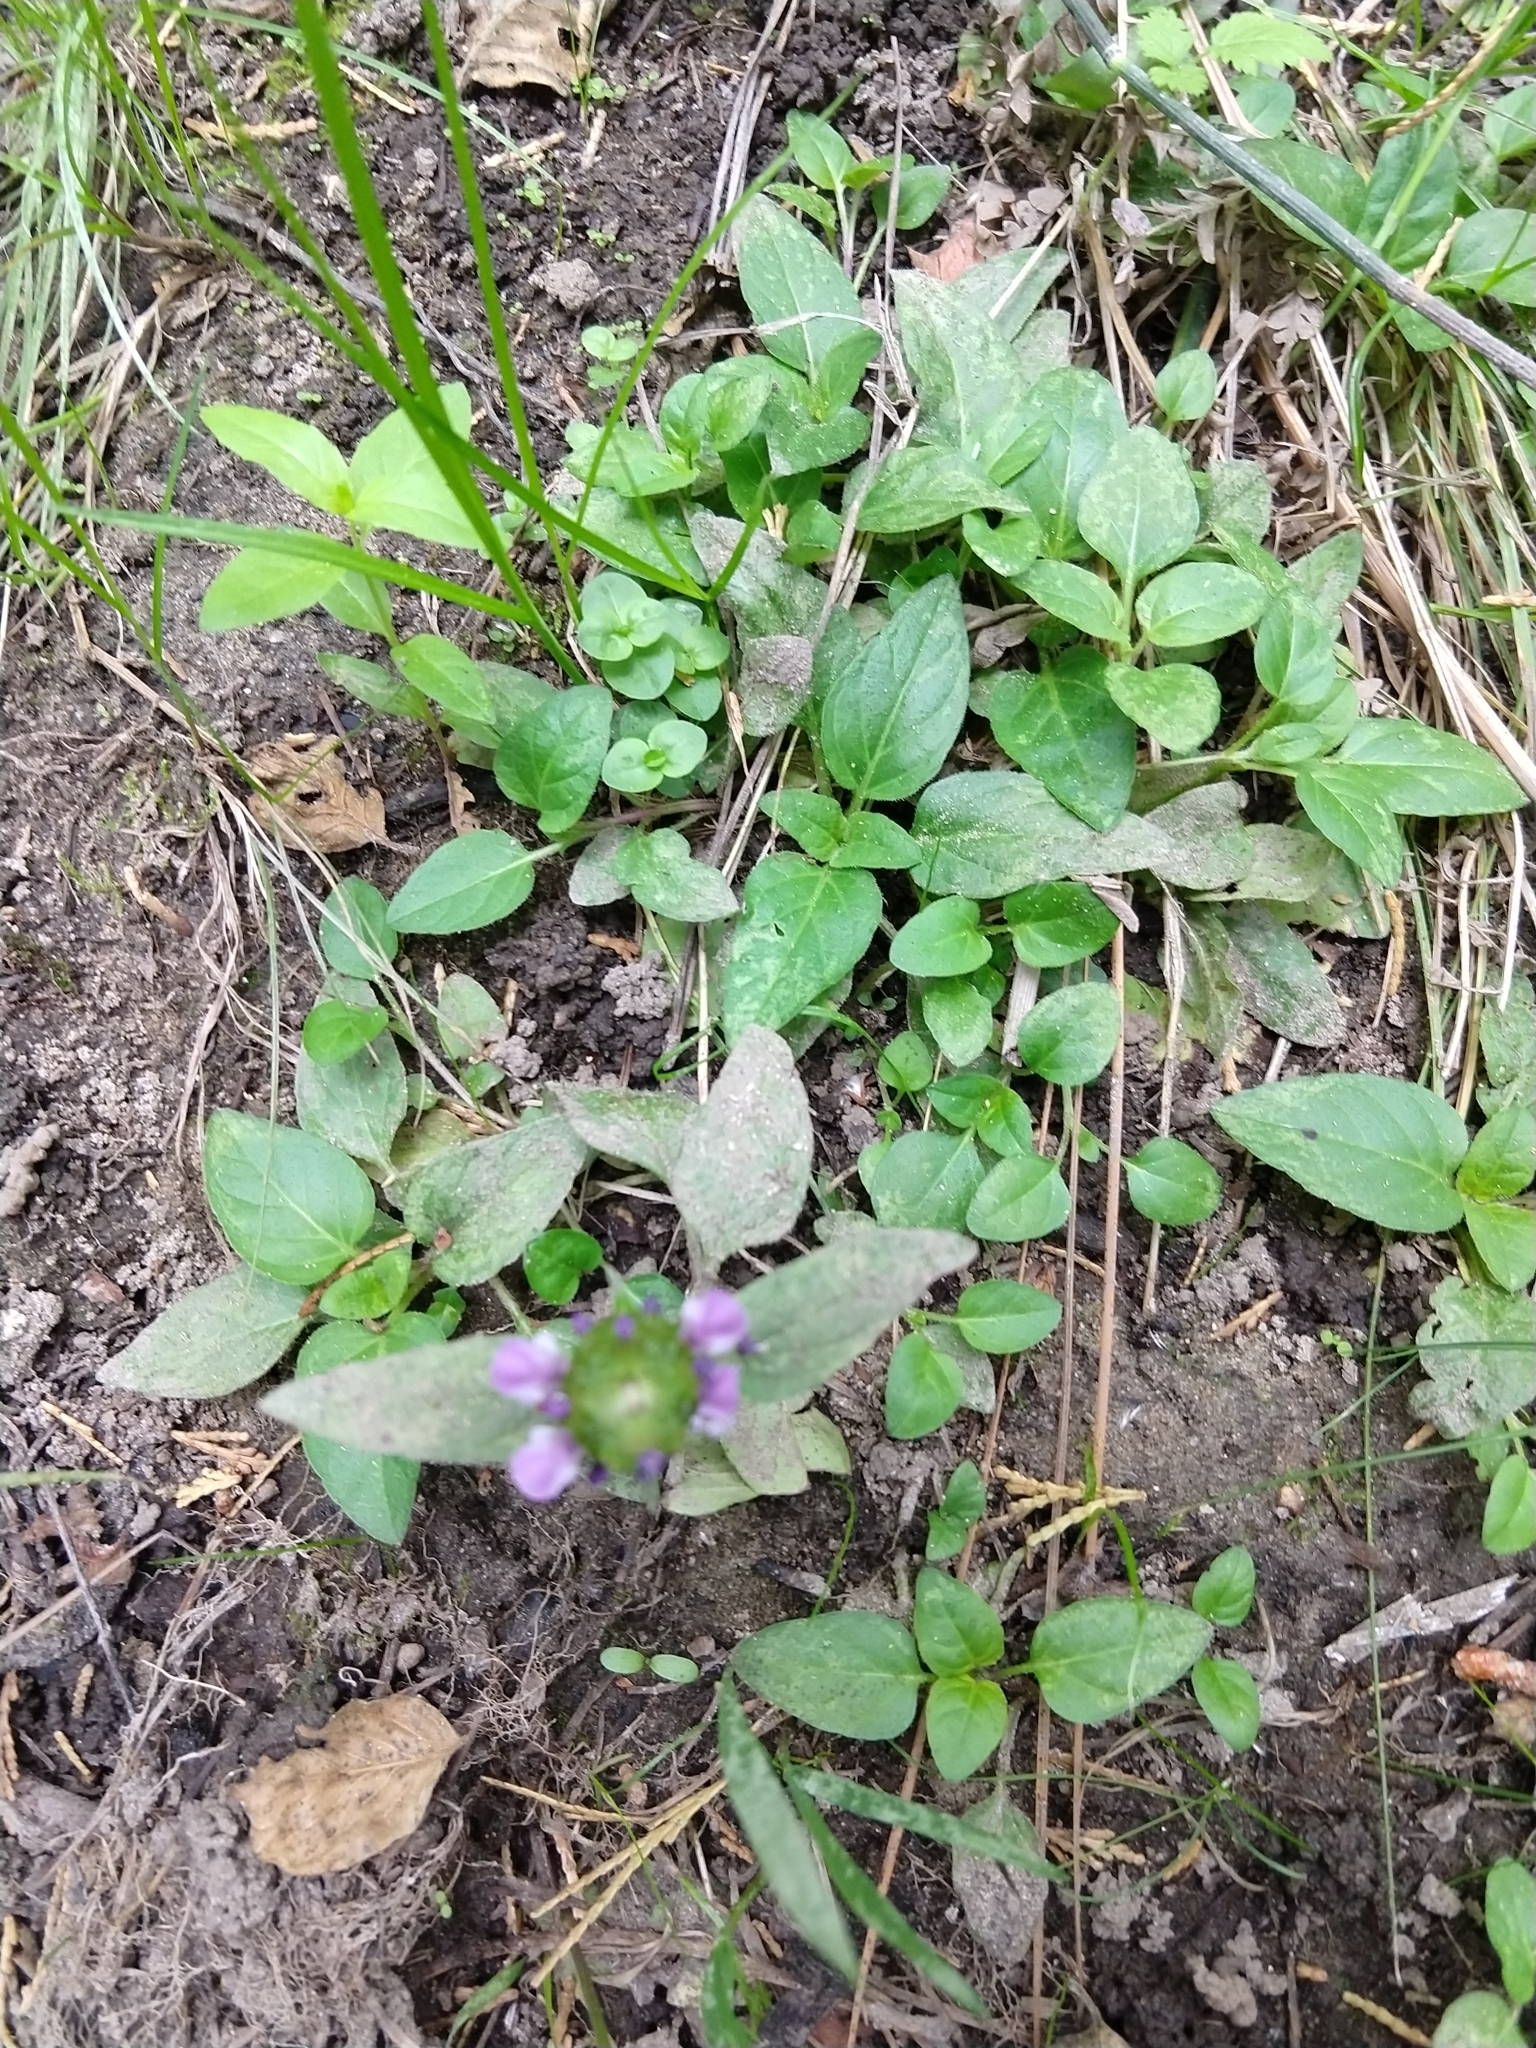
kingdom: Plantae
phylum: Tracheophyta
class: Magnoliopsida
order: Lamiales
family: Lamiaceae
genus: Prunella
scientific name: Prunella vulgaris
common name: Heal-all
